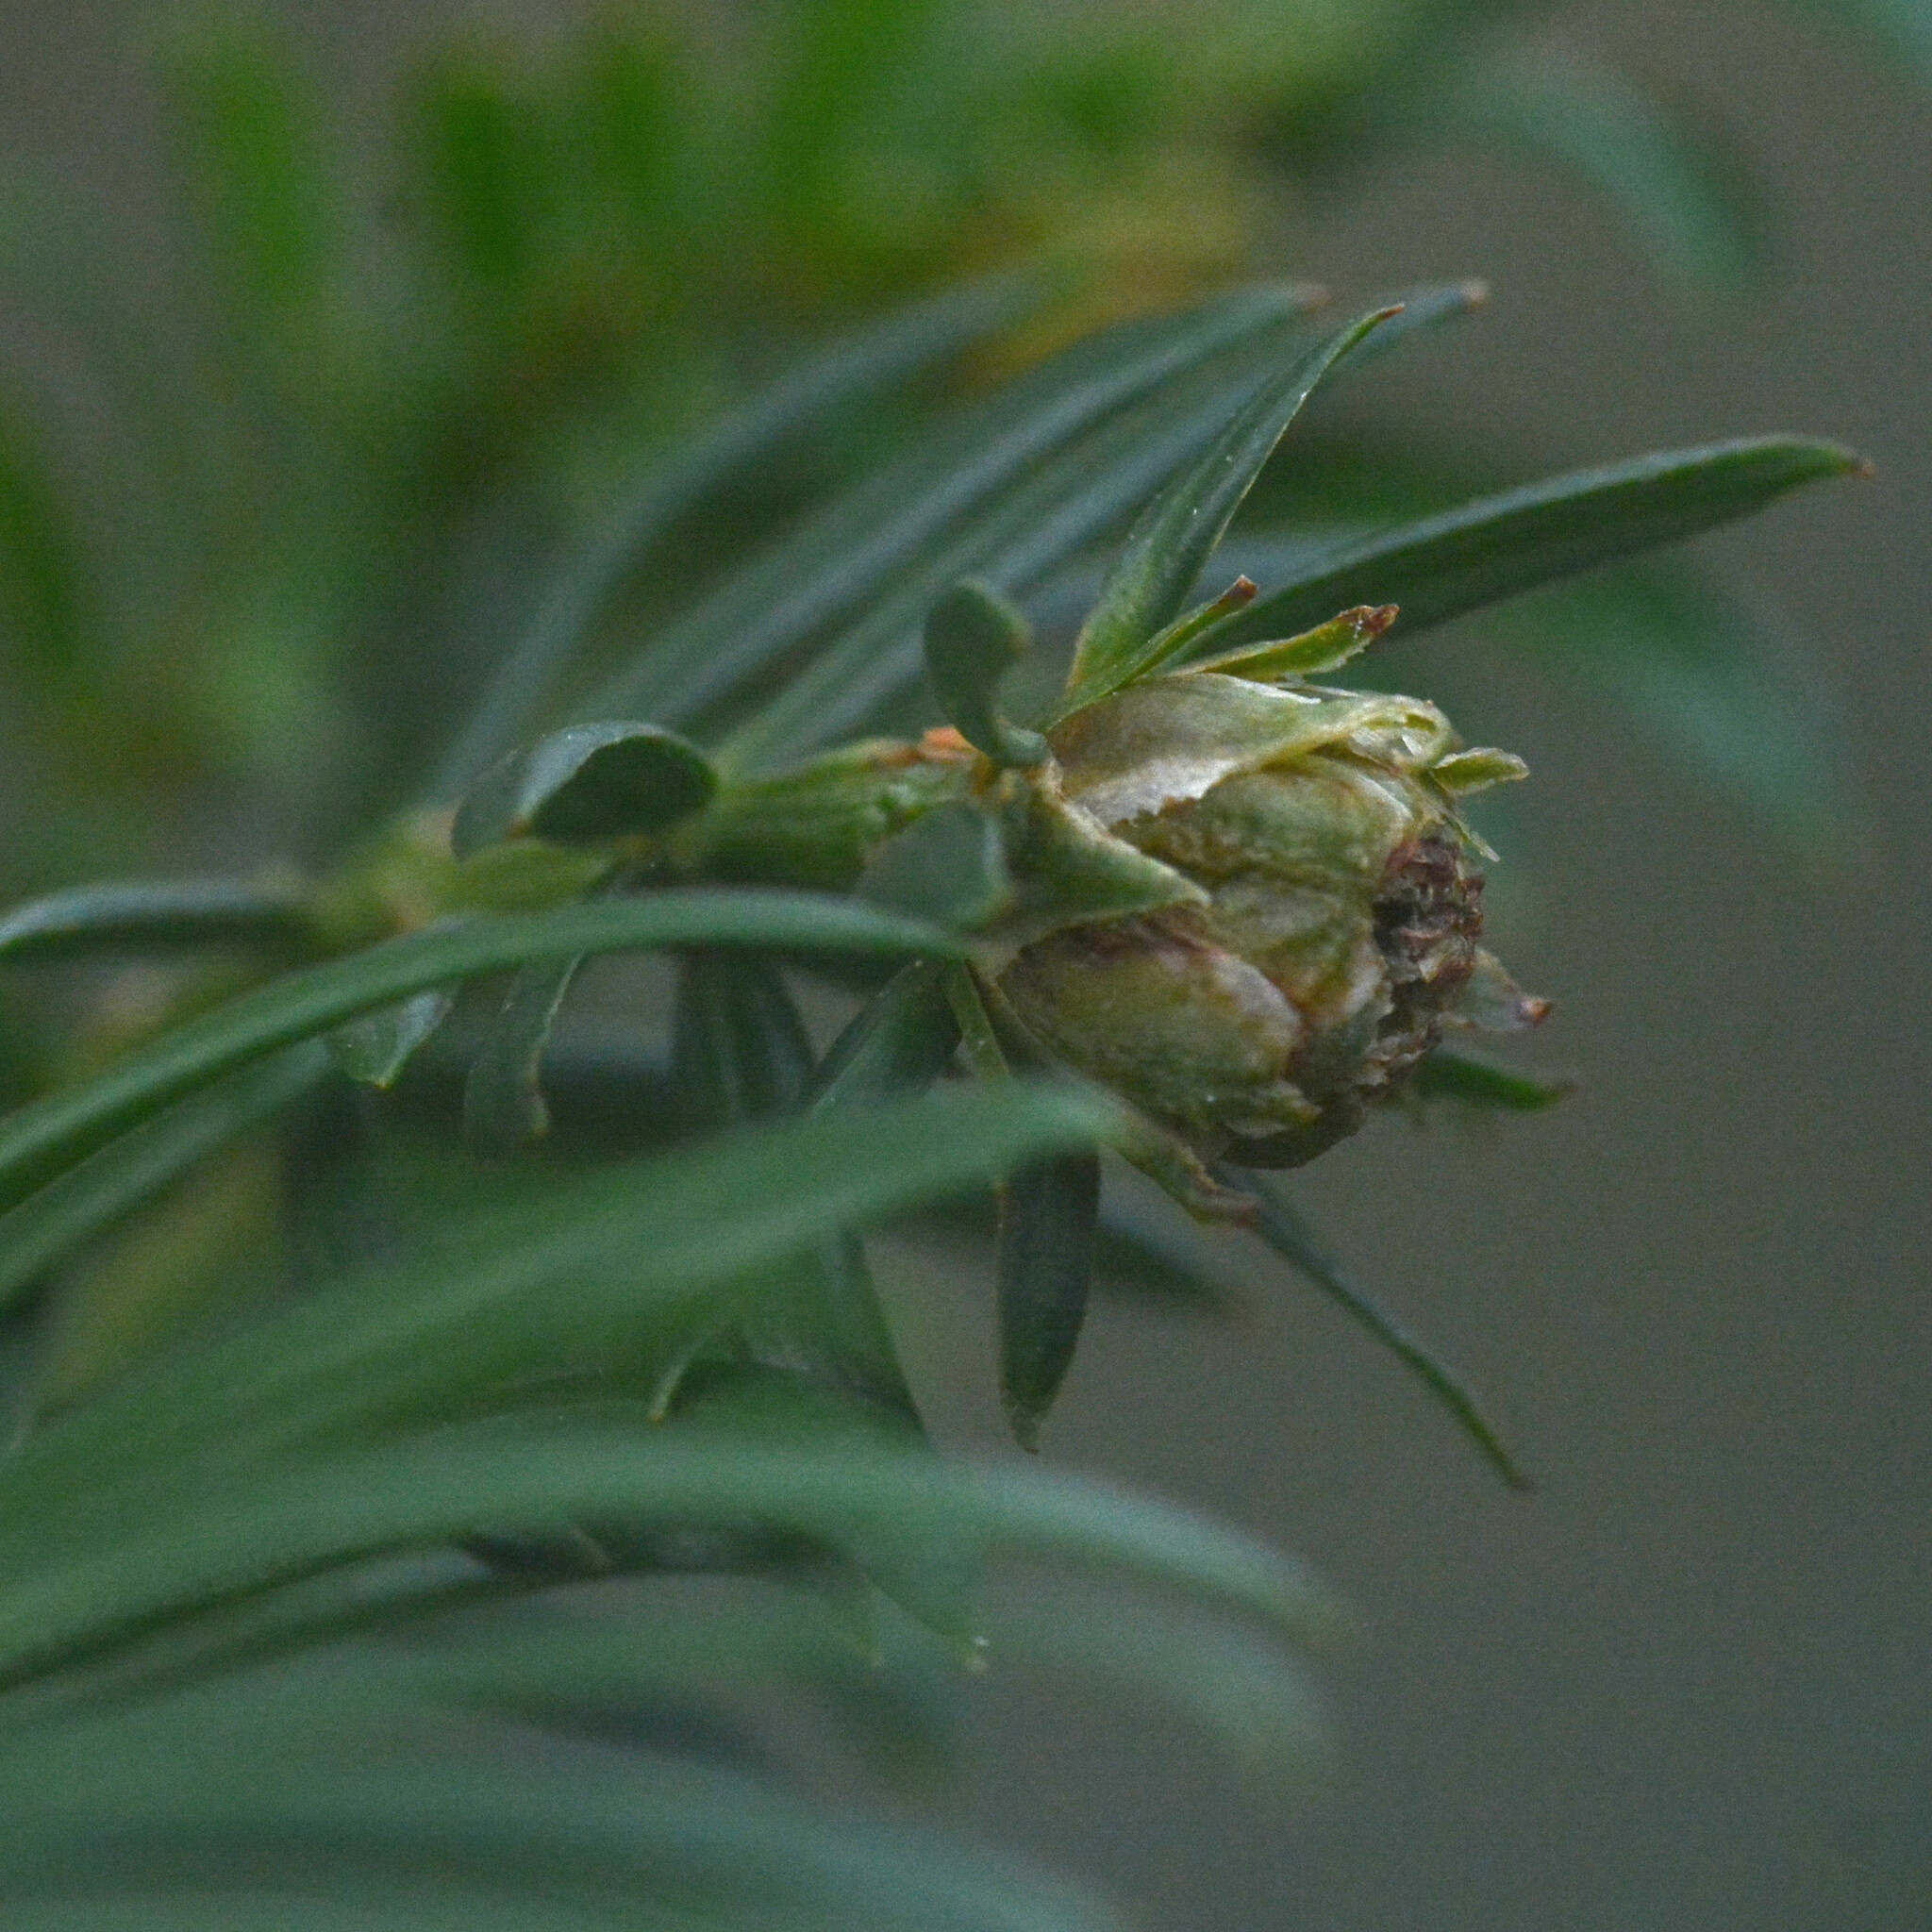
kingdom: Animalia
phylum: Arthropoda
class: Insecta
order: Diptera
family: Cecidomyiidae
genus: Taxomyia
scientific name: Taxomyia taxi
